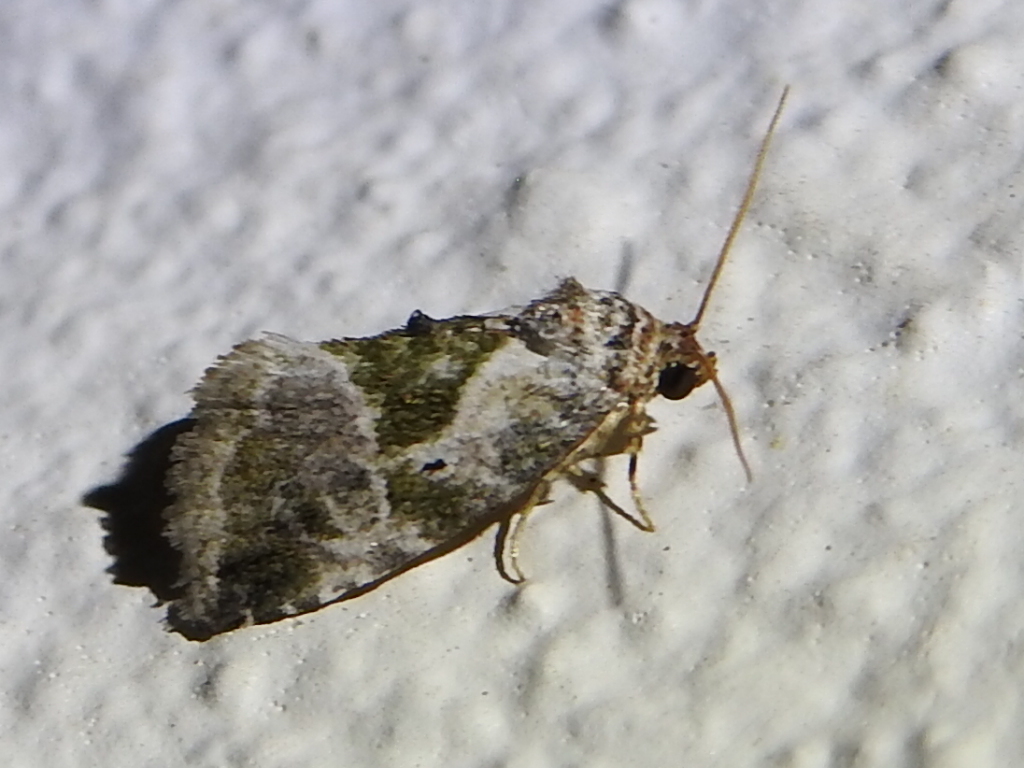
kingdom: Animalia
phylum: Arthropoda
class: Insecta
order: Lepidoptera
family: Noctuidae
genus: Maliattha
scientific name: Maliattha synochitis
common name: Black-dotted glyph
